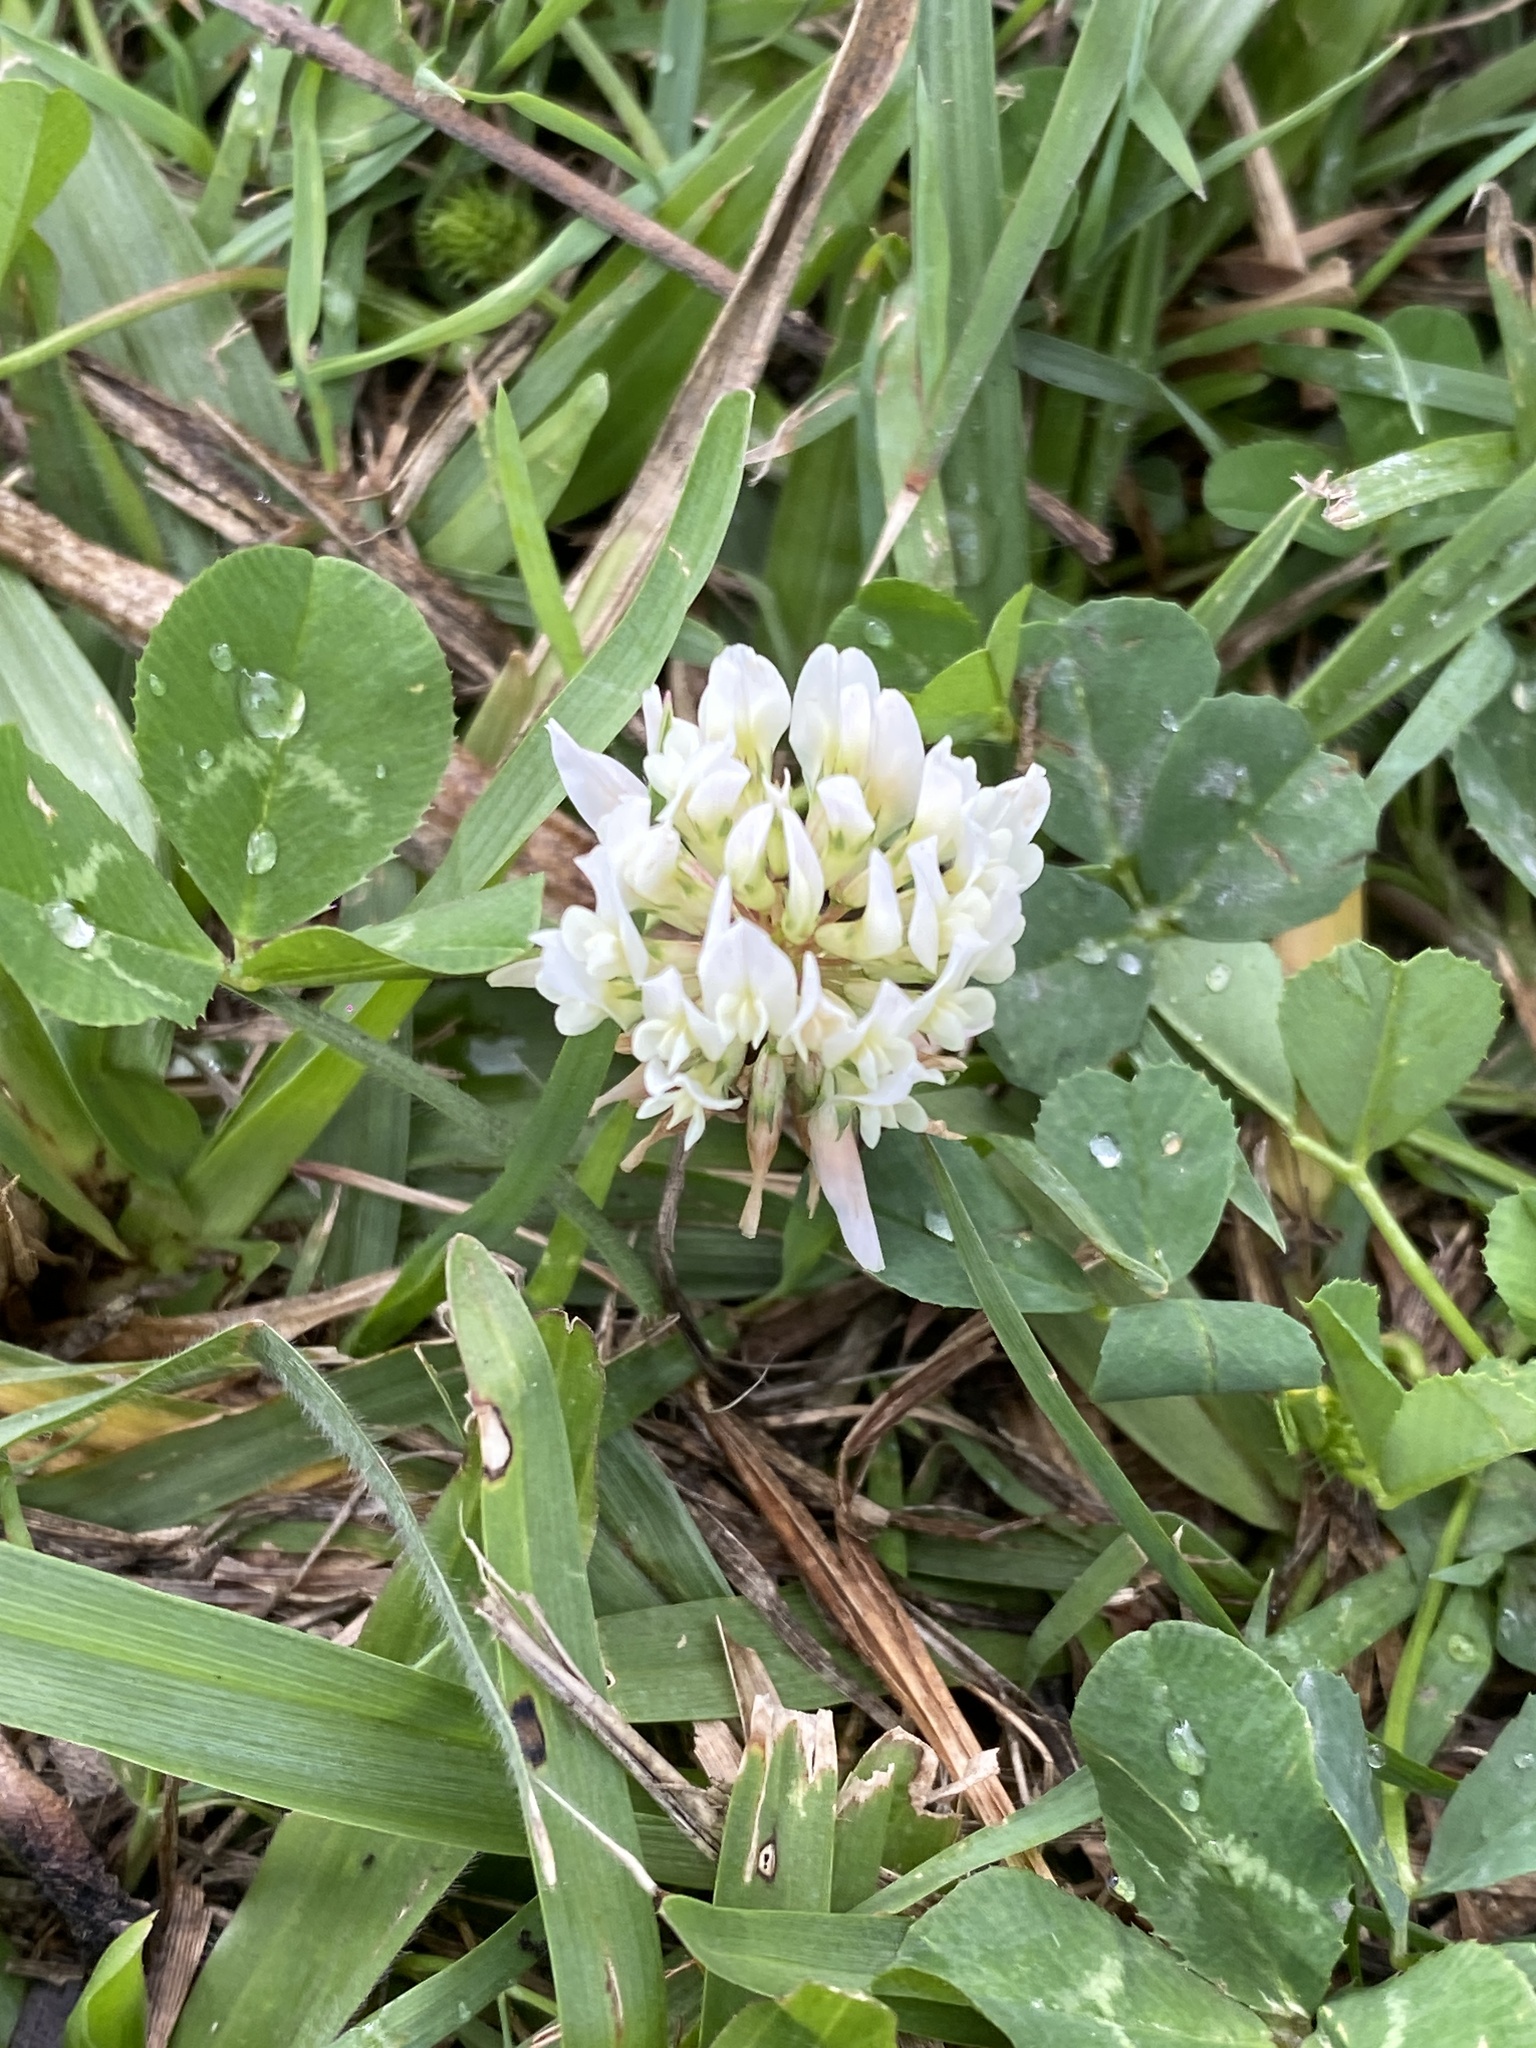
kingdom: Plantae
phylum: Tracheophyta
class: Magnoliopsida
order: Fabales
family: Fabaceae
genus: Trifolium
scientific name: Trifolium repens
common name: White clover
